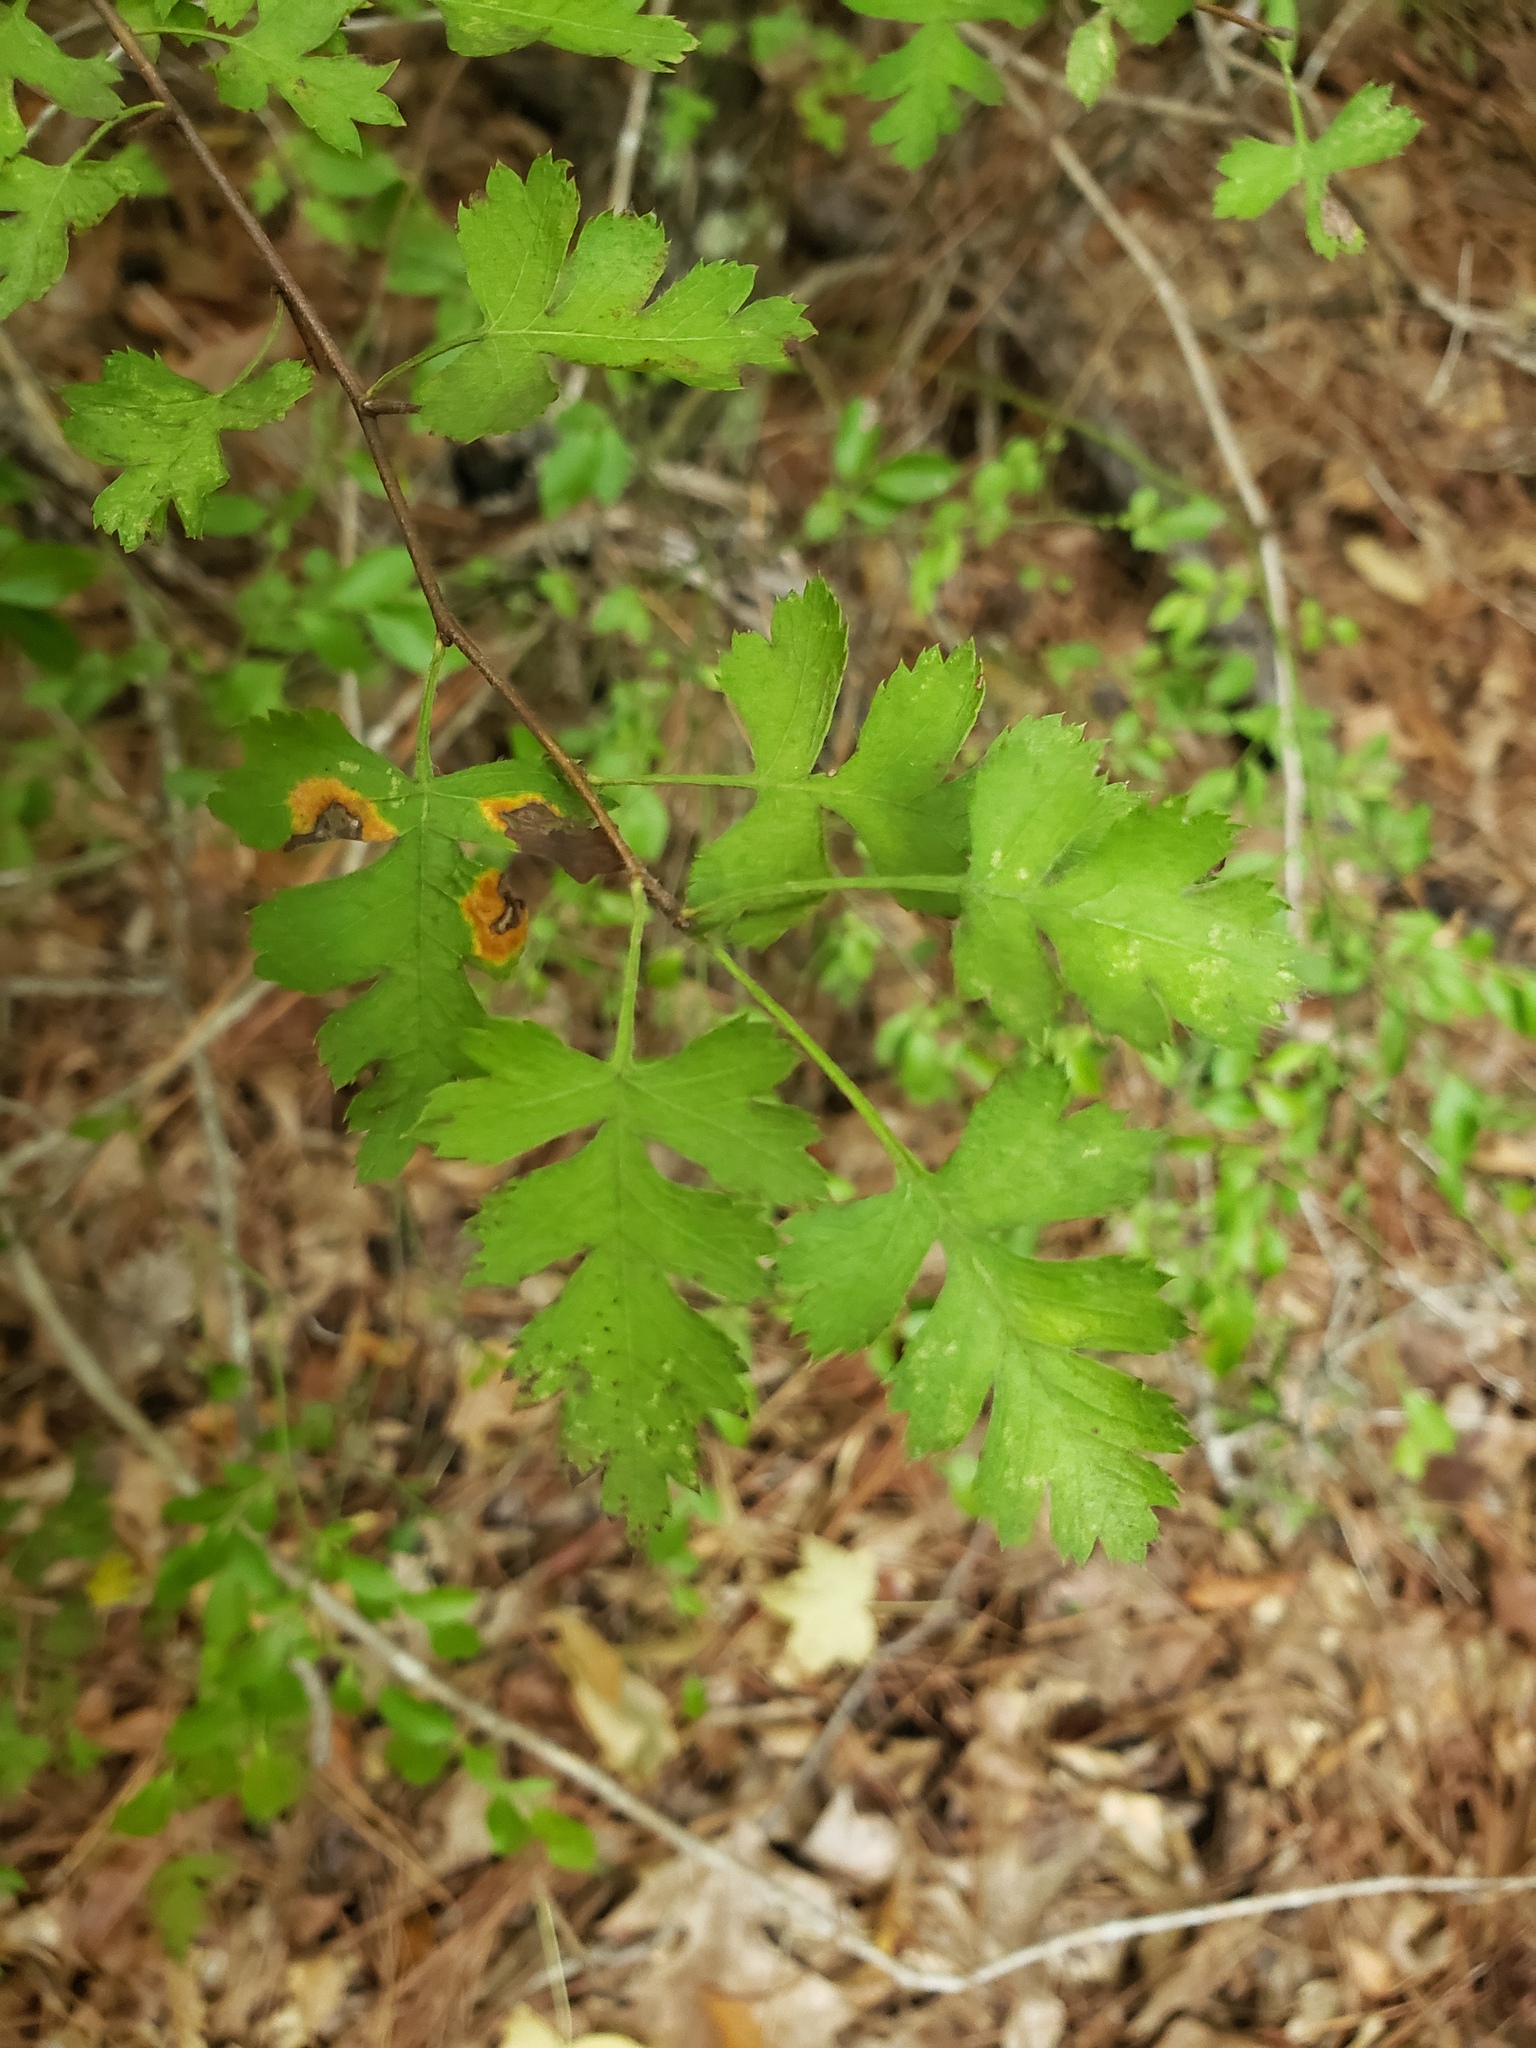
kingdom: Plantae
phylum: Tracheophyta
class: Magnoliopsida
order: Rosales
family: Rosaceae
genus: Crataegus
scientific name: Crataegus marshallii
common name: Parsley-hawthorn
